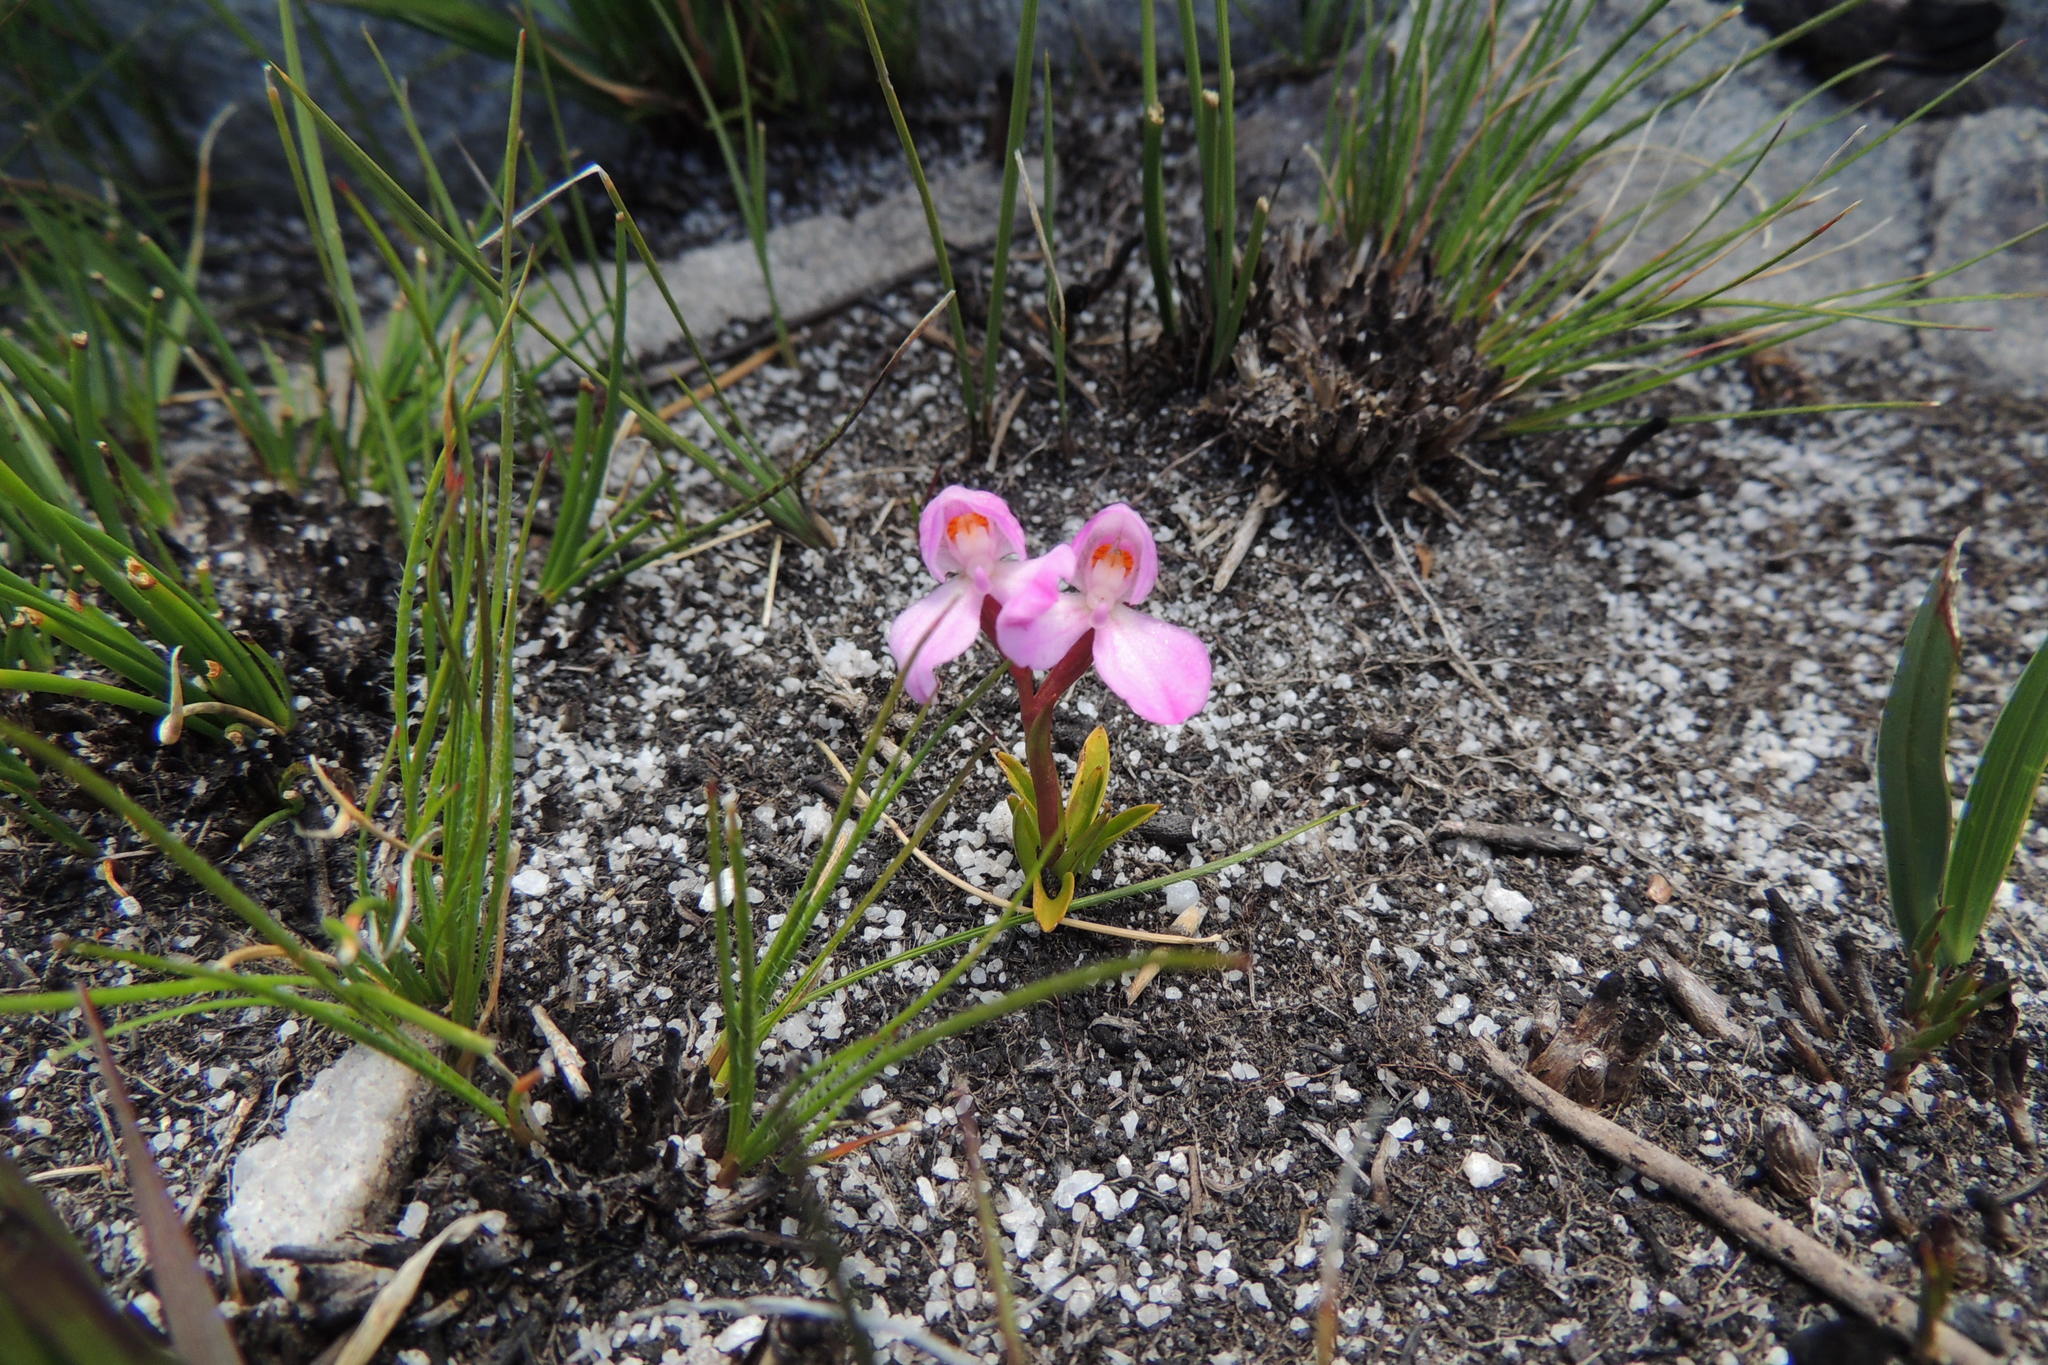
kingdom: Plantae
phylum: Tracheophyta
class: Liliopsida
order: Asparagales
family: Orchidaceae
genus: Disa
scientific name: Disa vasselotii
